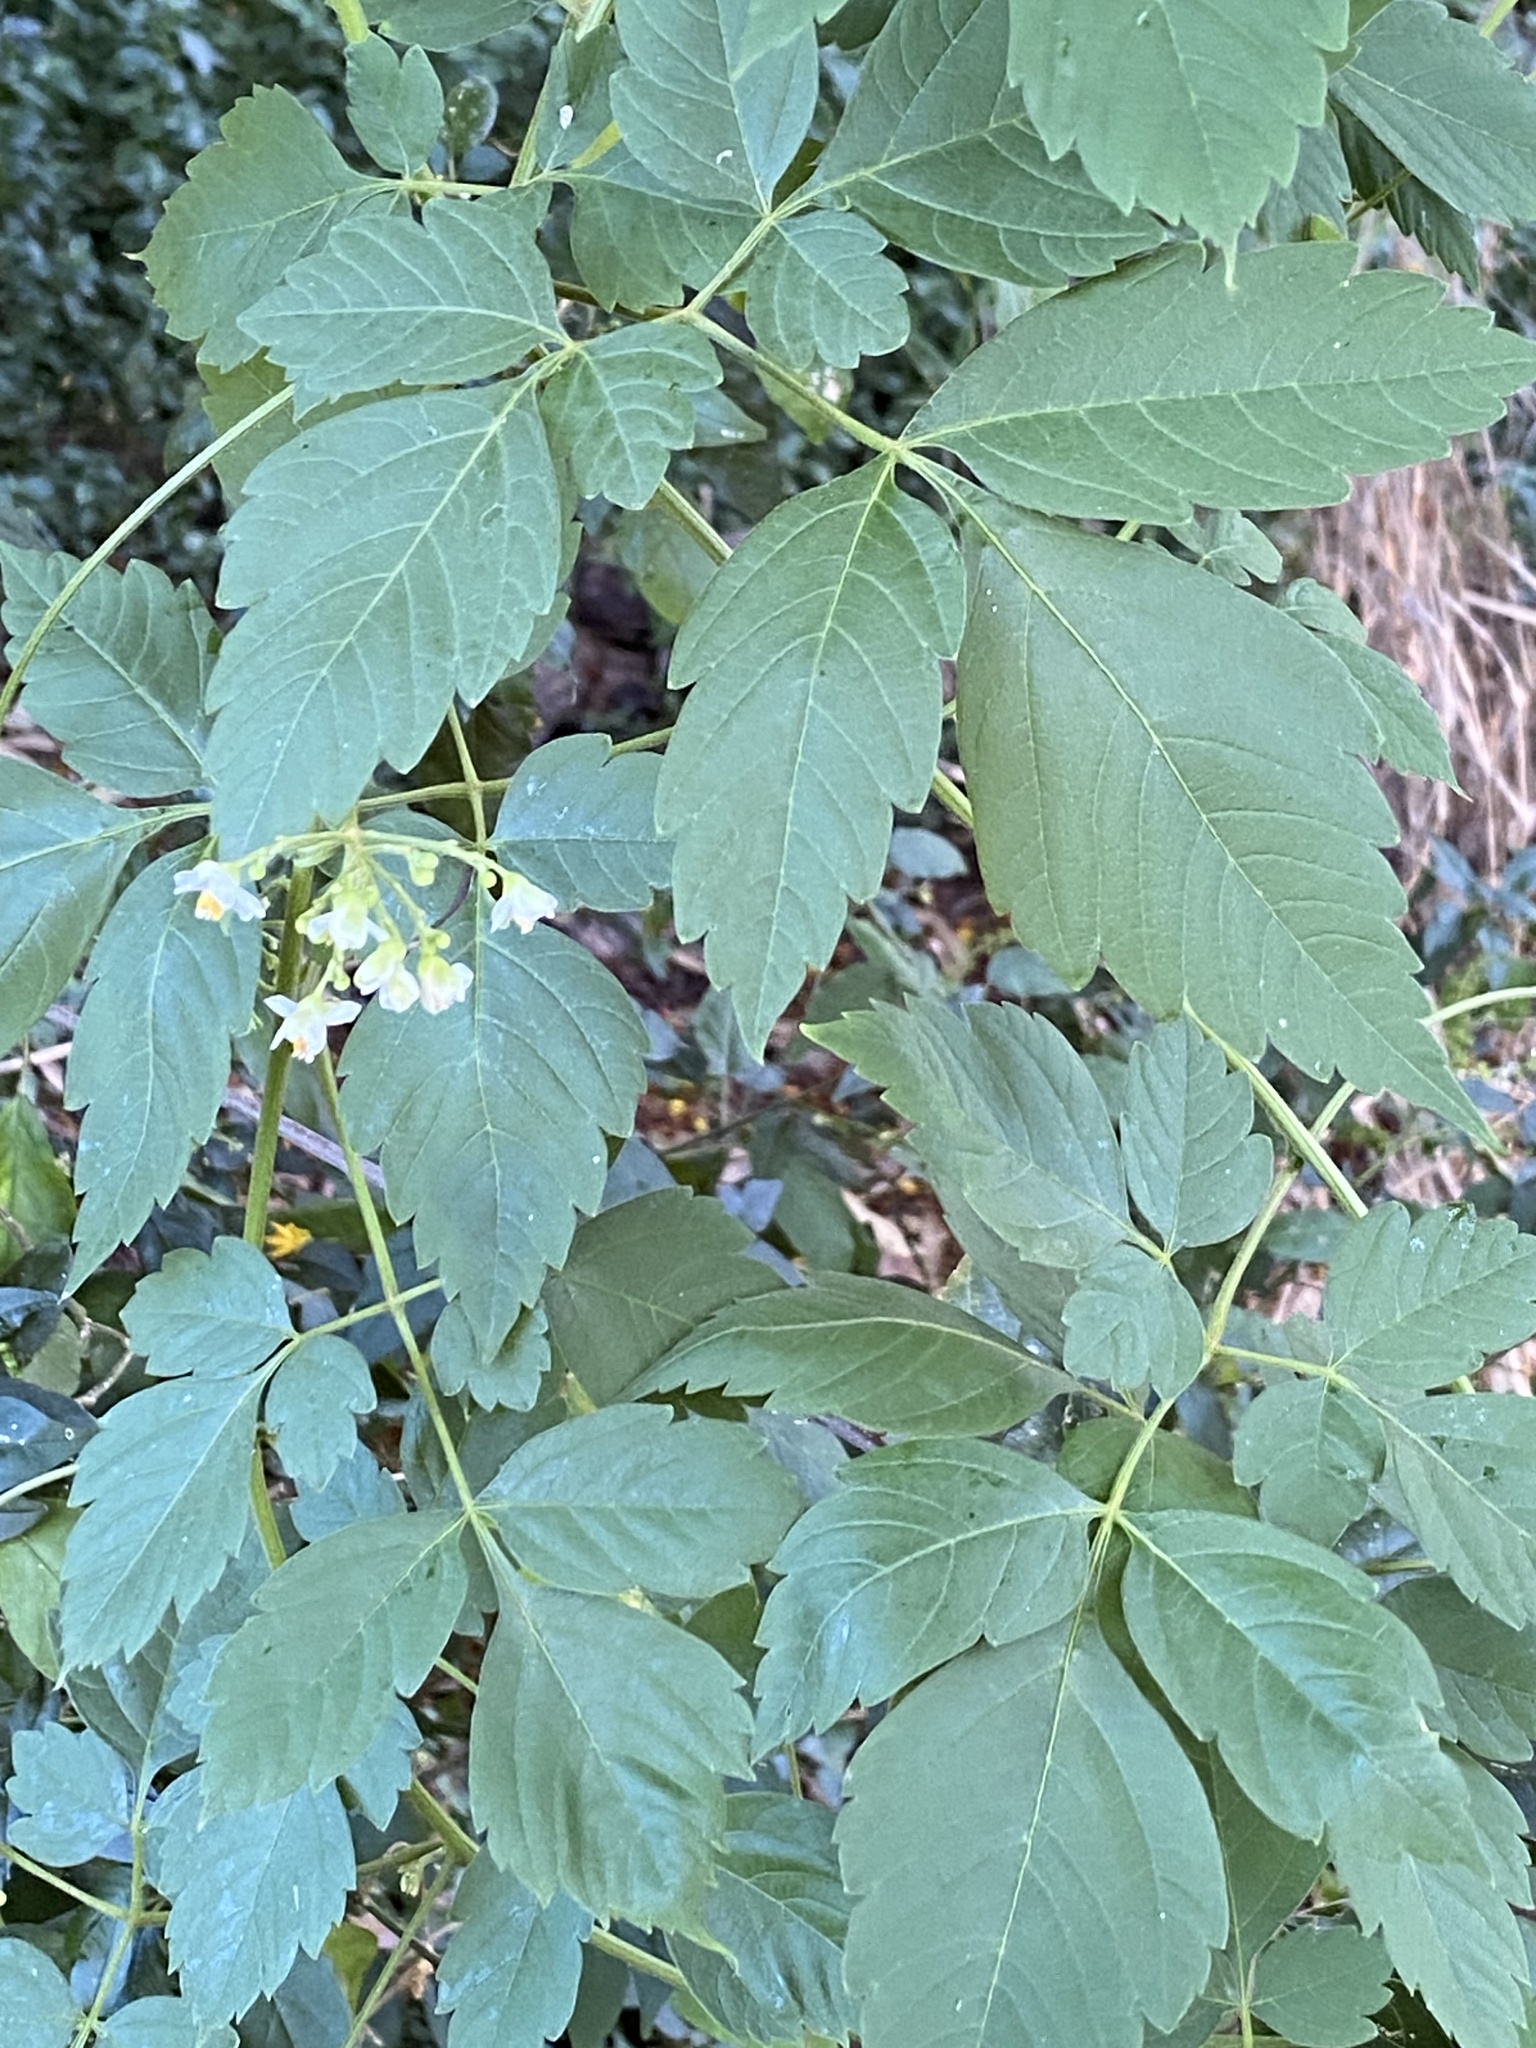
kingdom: Plantae
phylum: Tracheophyta
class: Magnoliopsida
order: Sapindales
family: Sapindaceae
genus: Cardiospermum
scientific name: Cardiospermum grandiflorum
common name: Balloon vine
